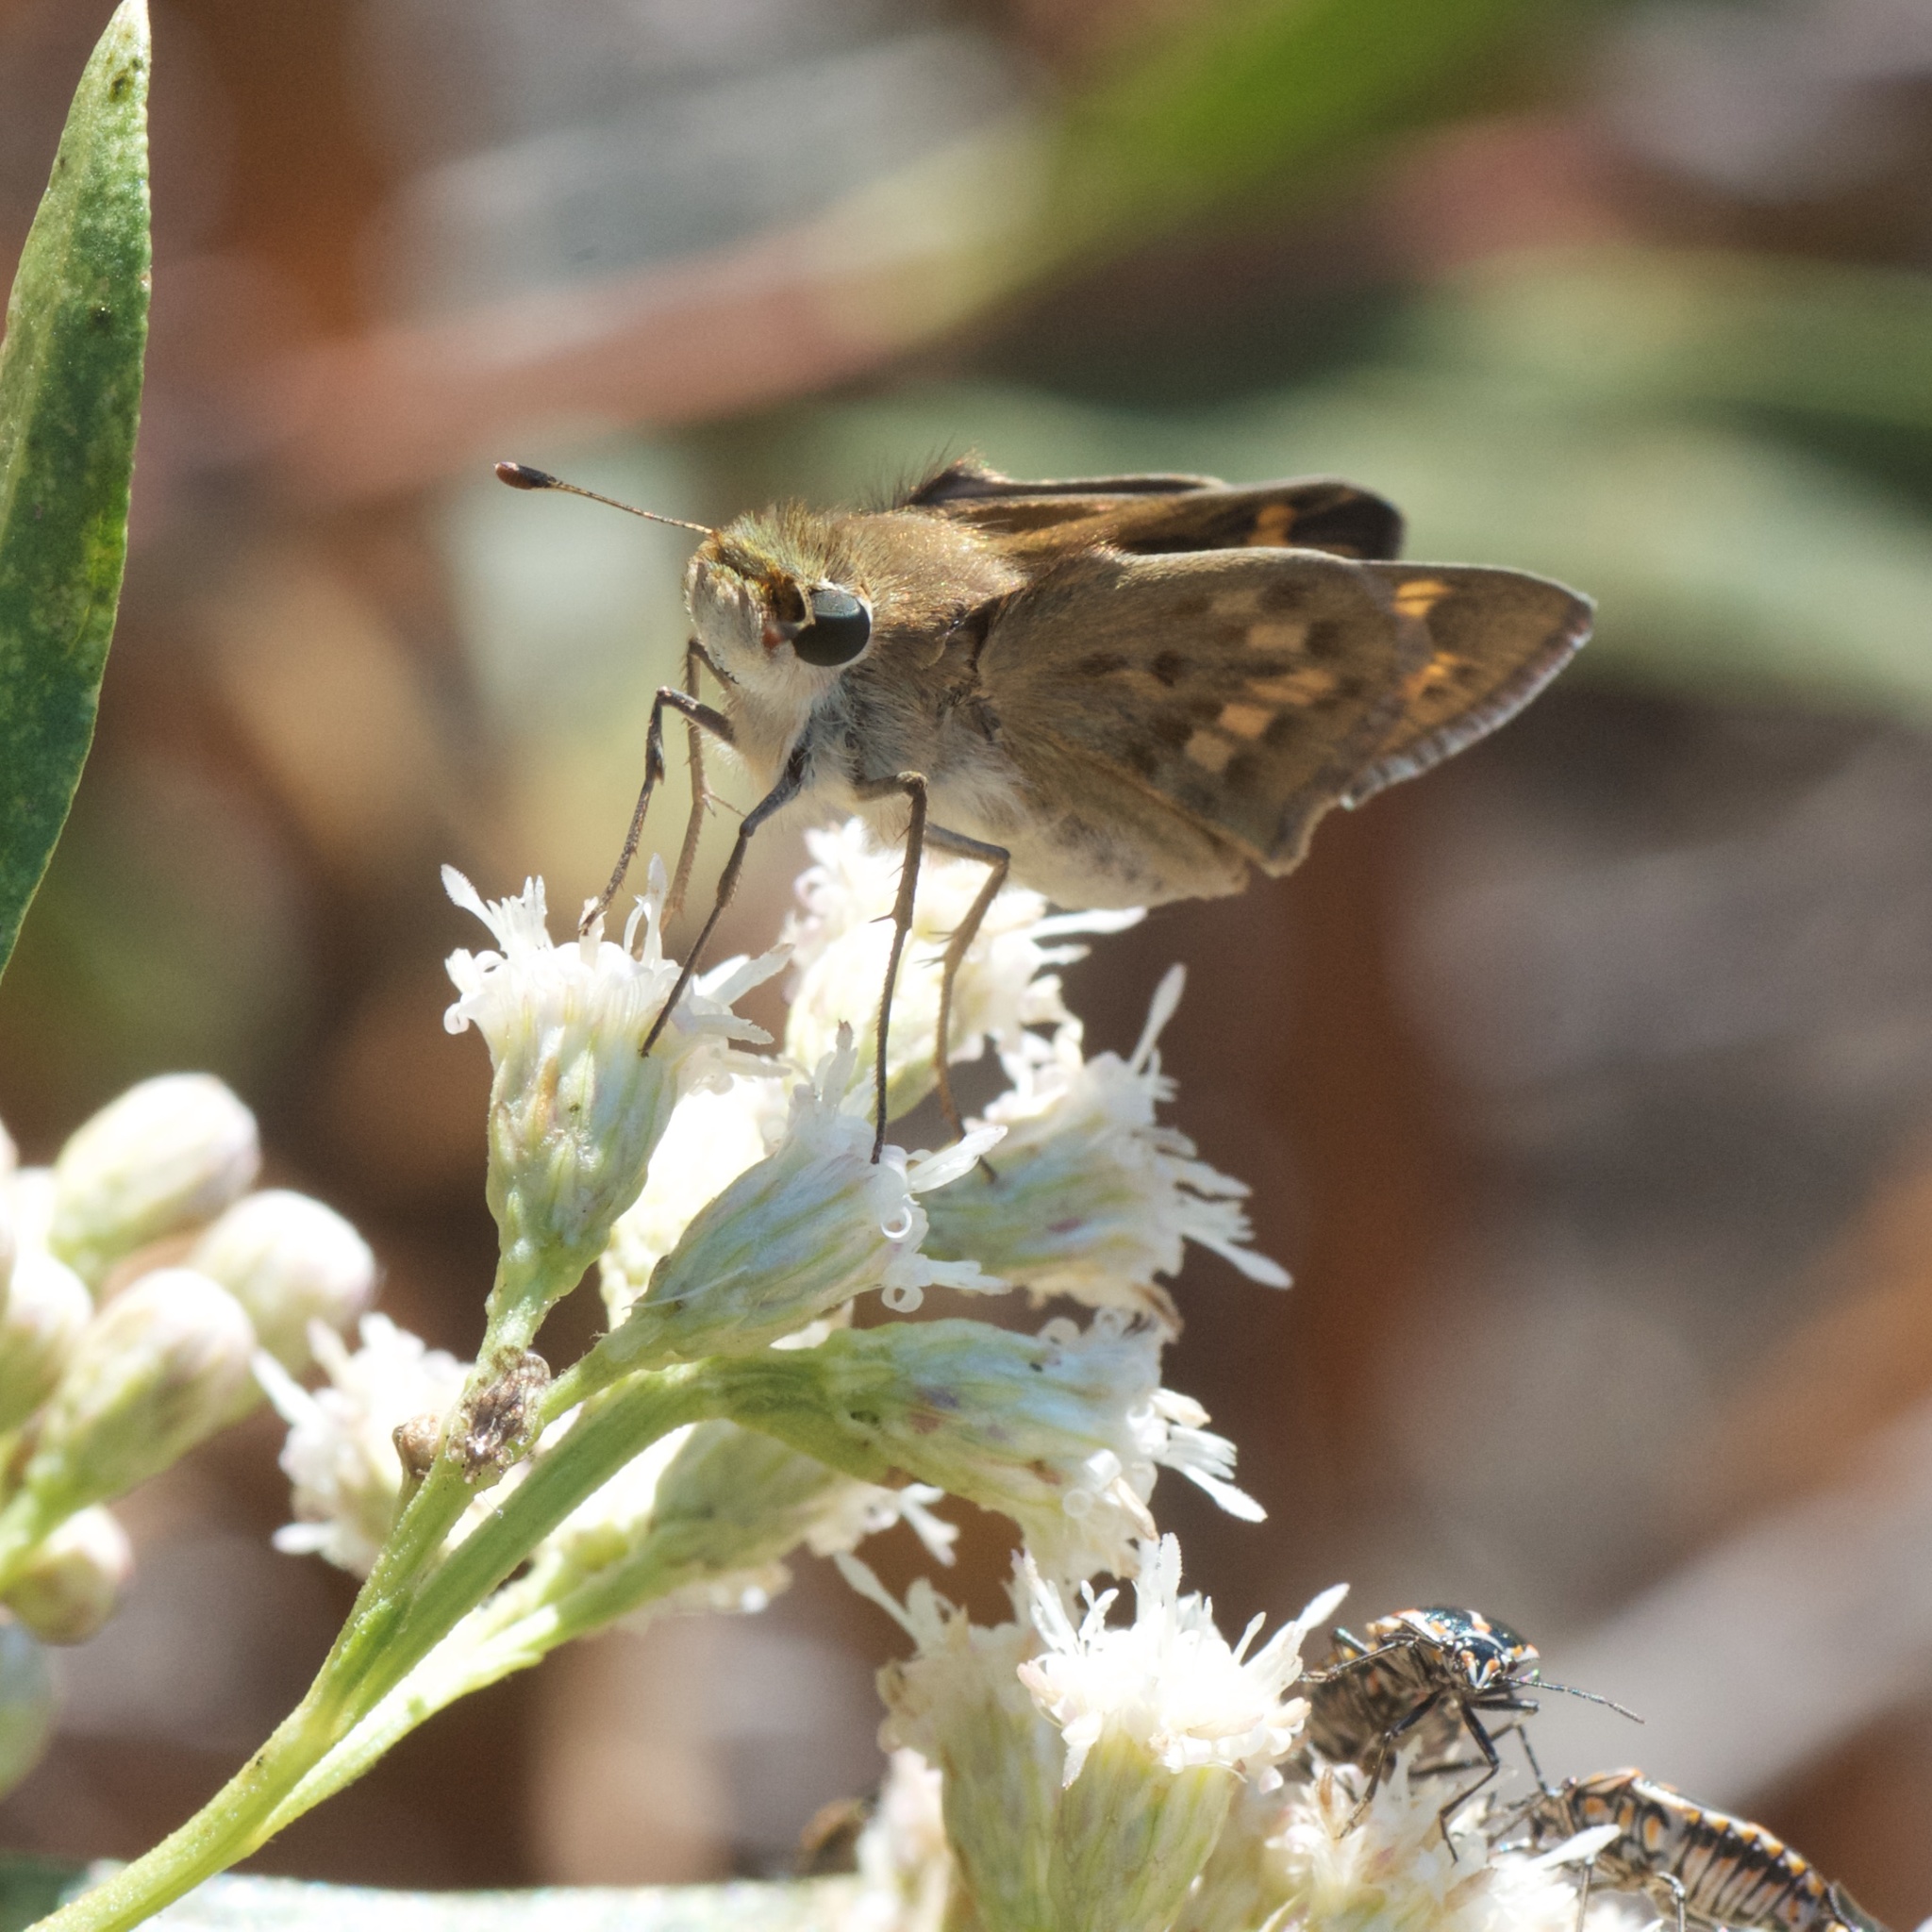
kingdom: Animalia
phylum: Arthropoda
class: Insecta
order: Lepidoptera
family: Hesperiidae
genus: Hylephila
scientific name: Hylephila phyleus
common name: Fiery skipper
